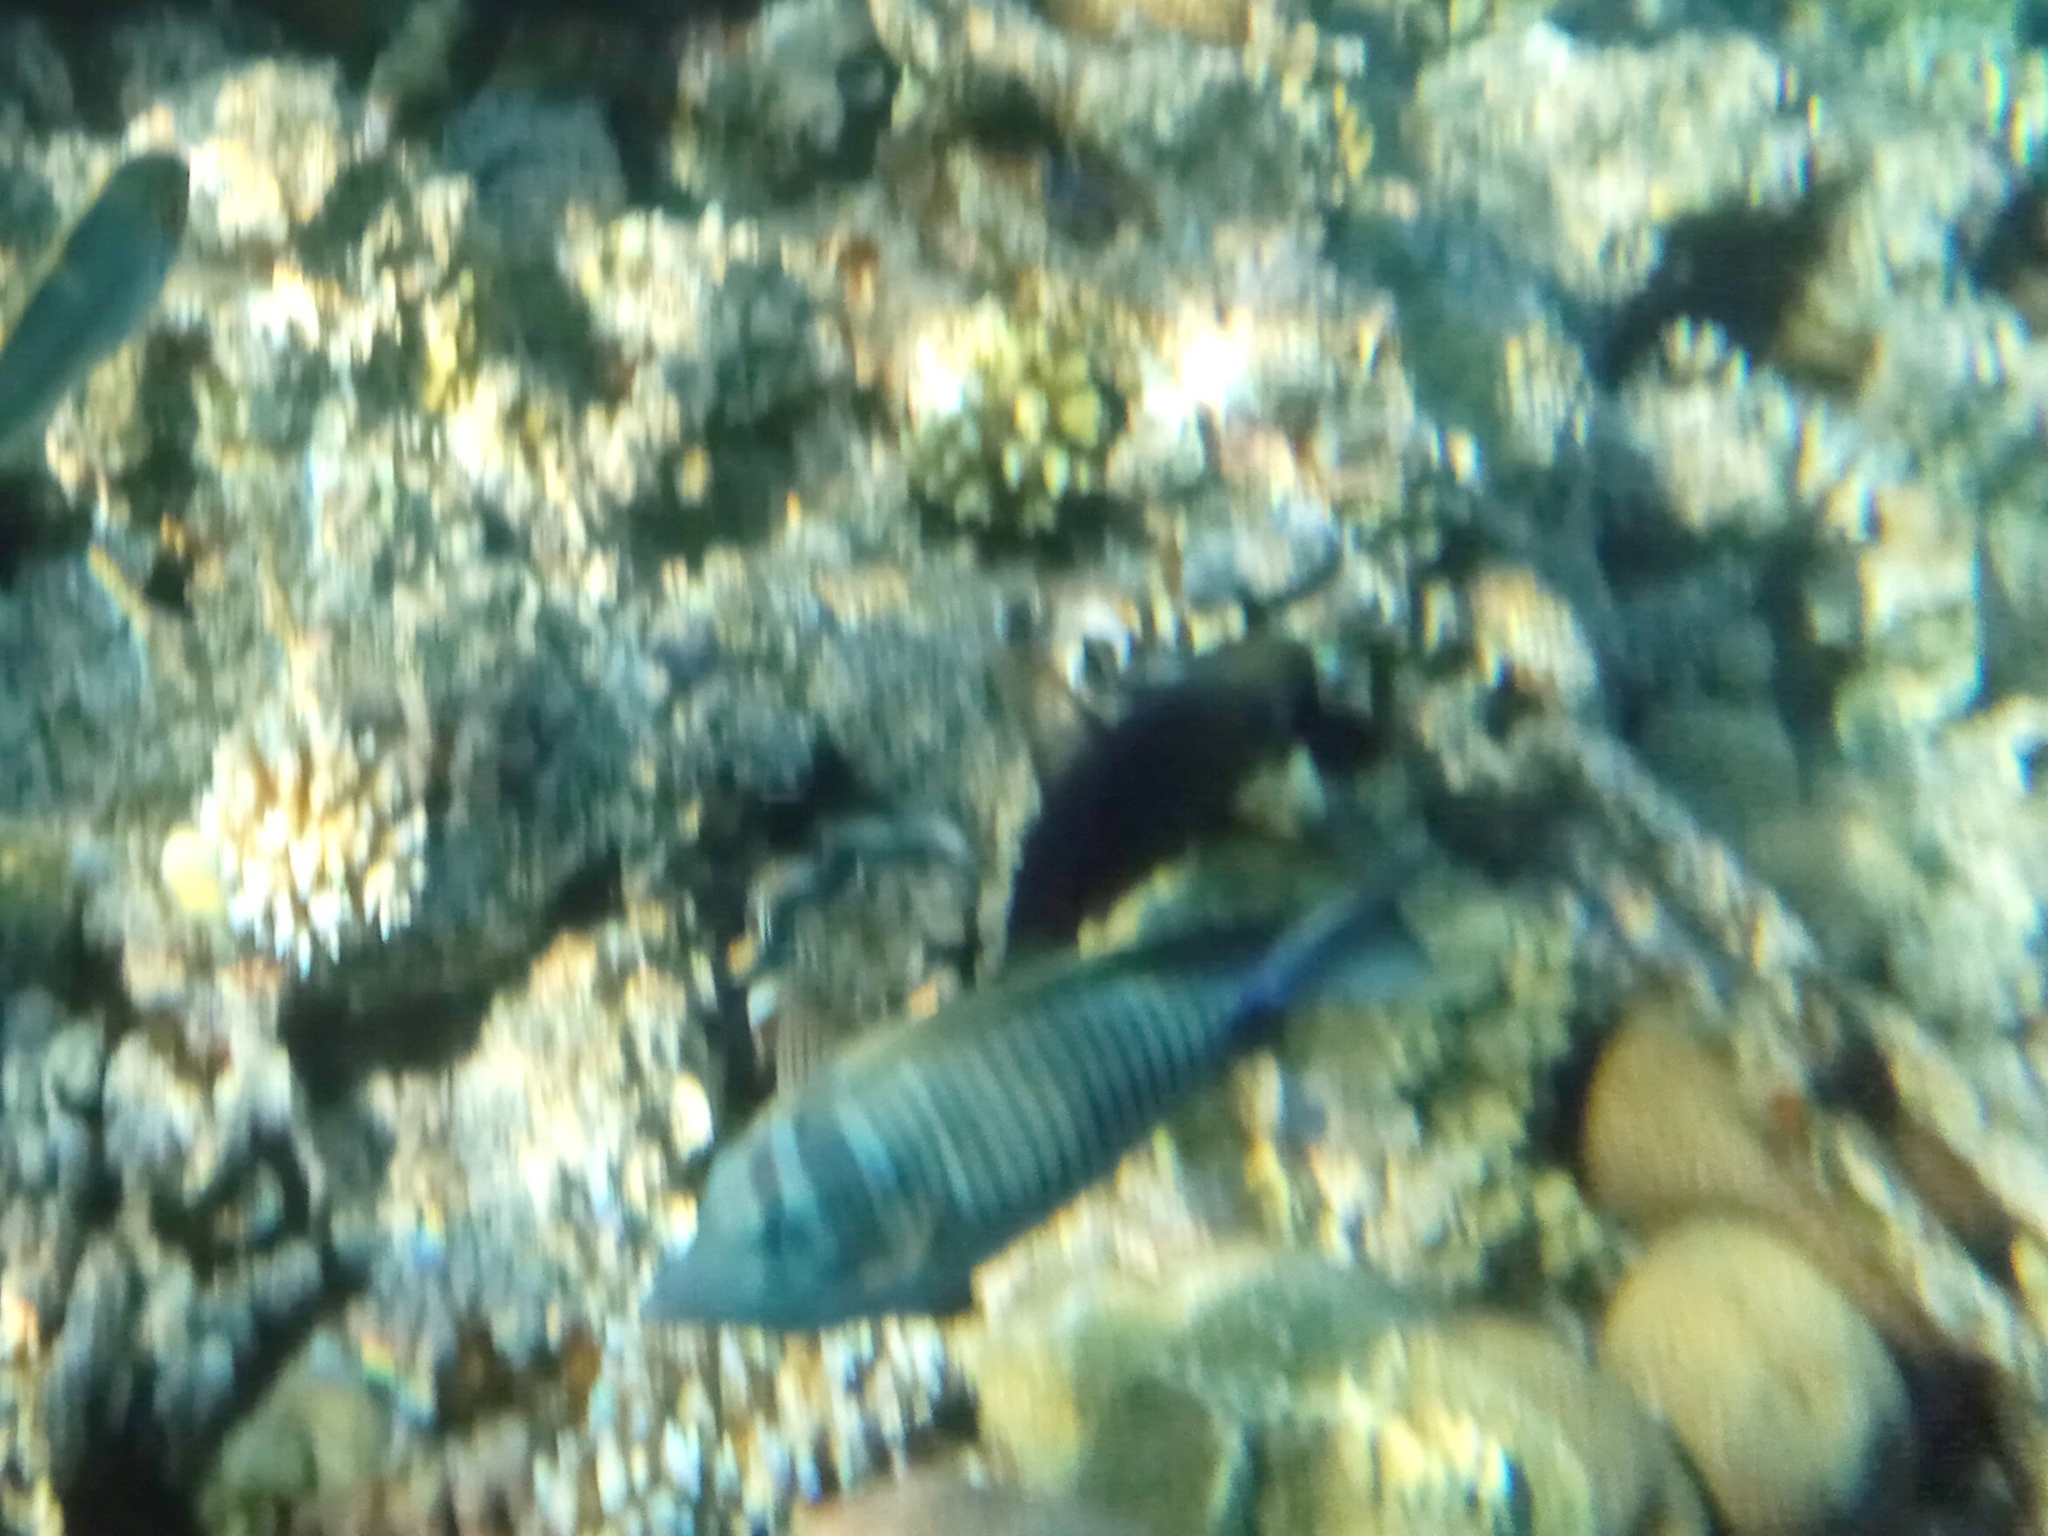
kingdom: Animalia
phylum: Chordata
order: Perciformes
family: Acanthuridae
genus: Zebrasoma
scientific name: Zebrasoma desjardinii
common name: Desjardin's sailfin tang
